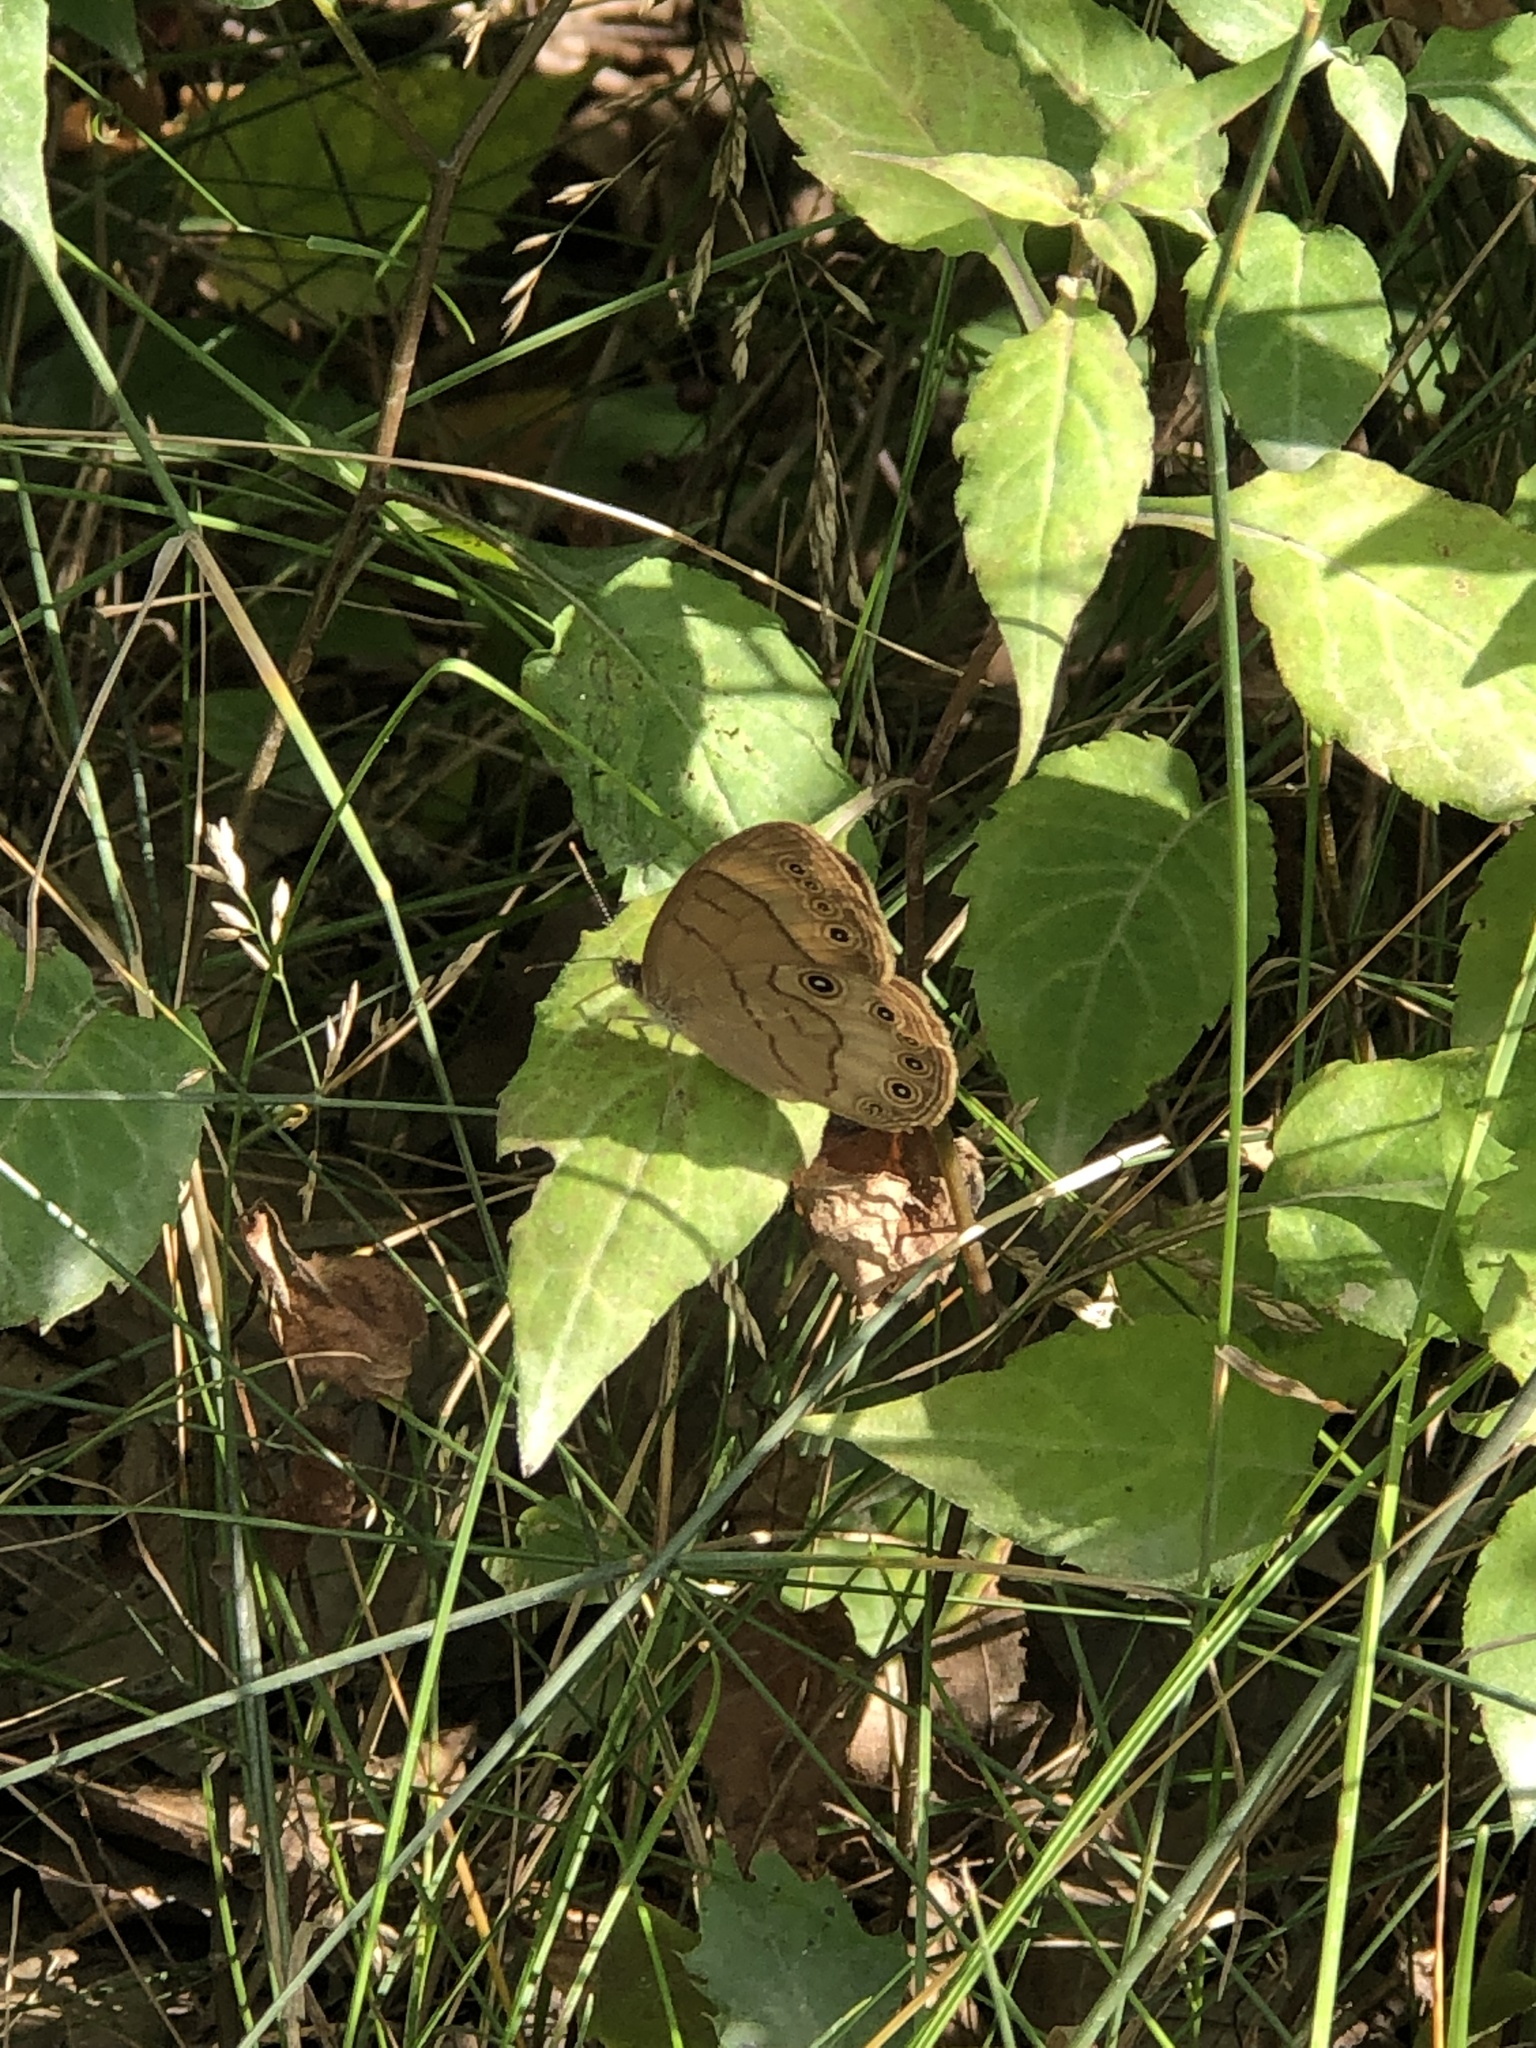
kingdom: Animalia
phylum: Arthropoda
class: Insecta
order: Lepidoptera
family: Nymphalidae
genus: Lethe
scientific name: Lethe eurydice
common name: Eyed brown
